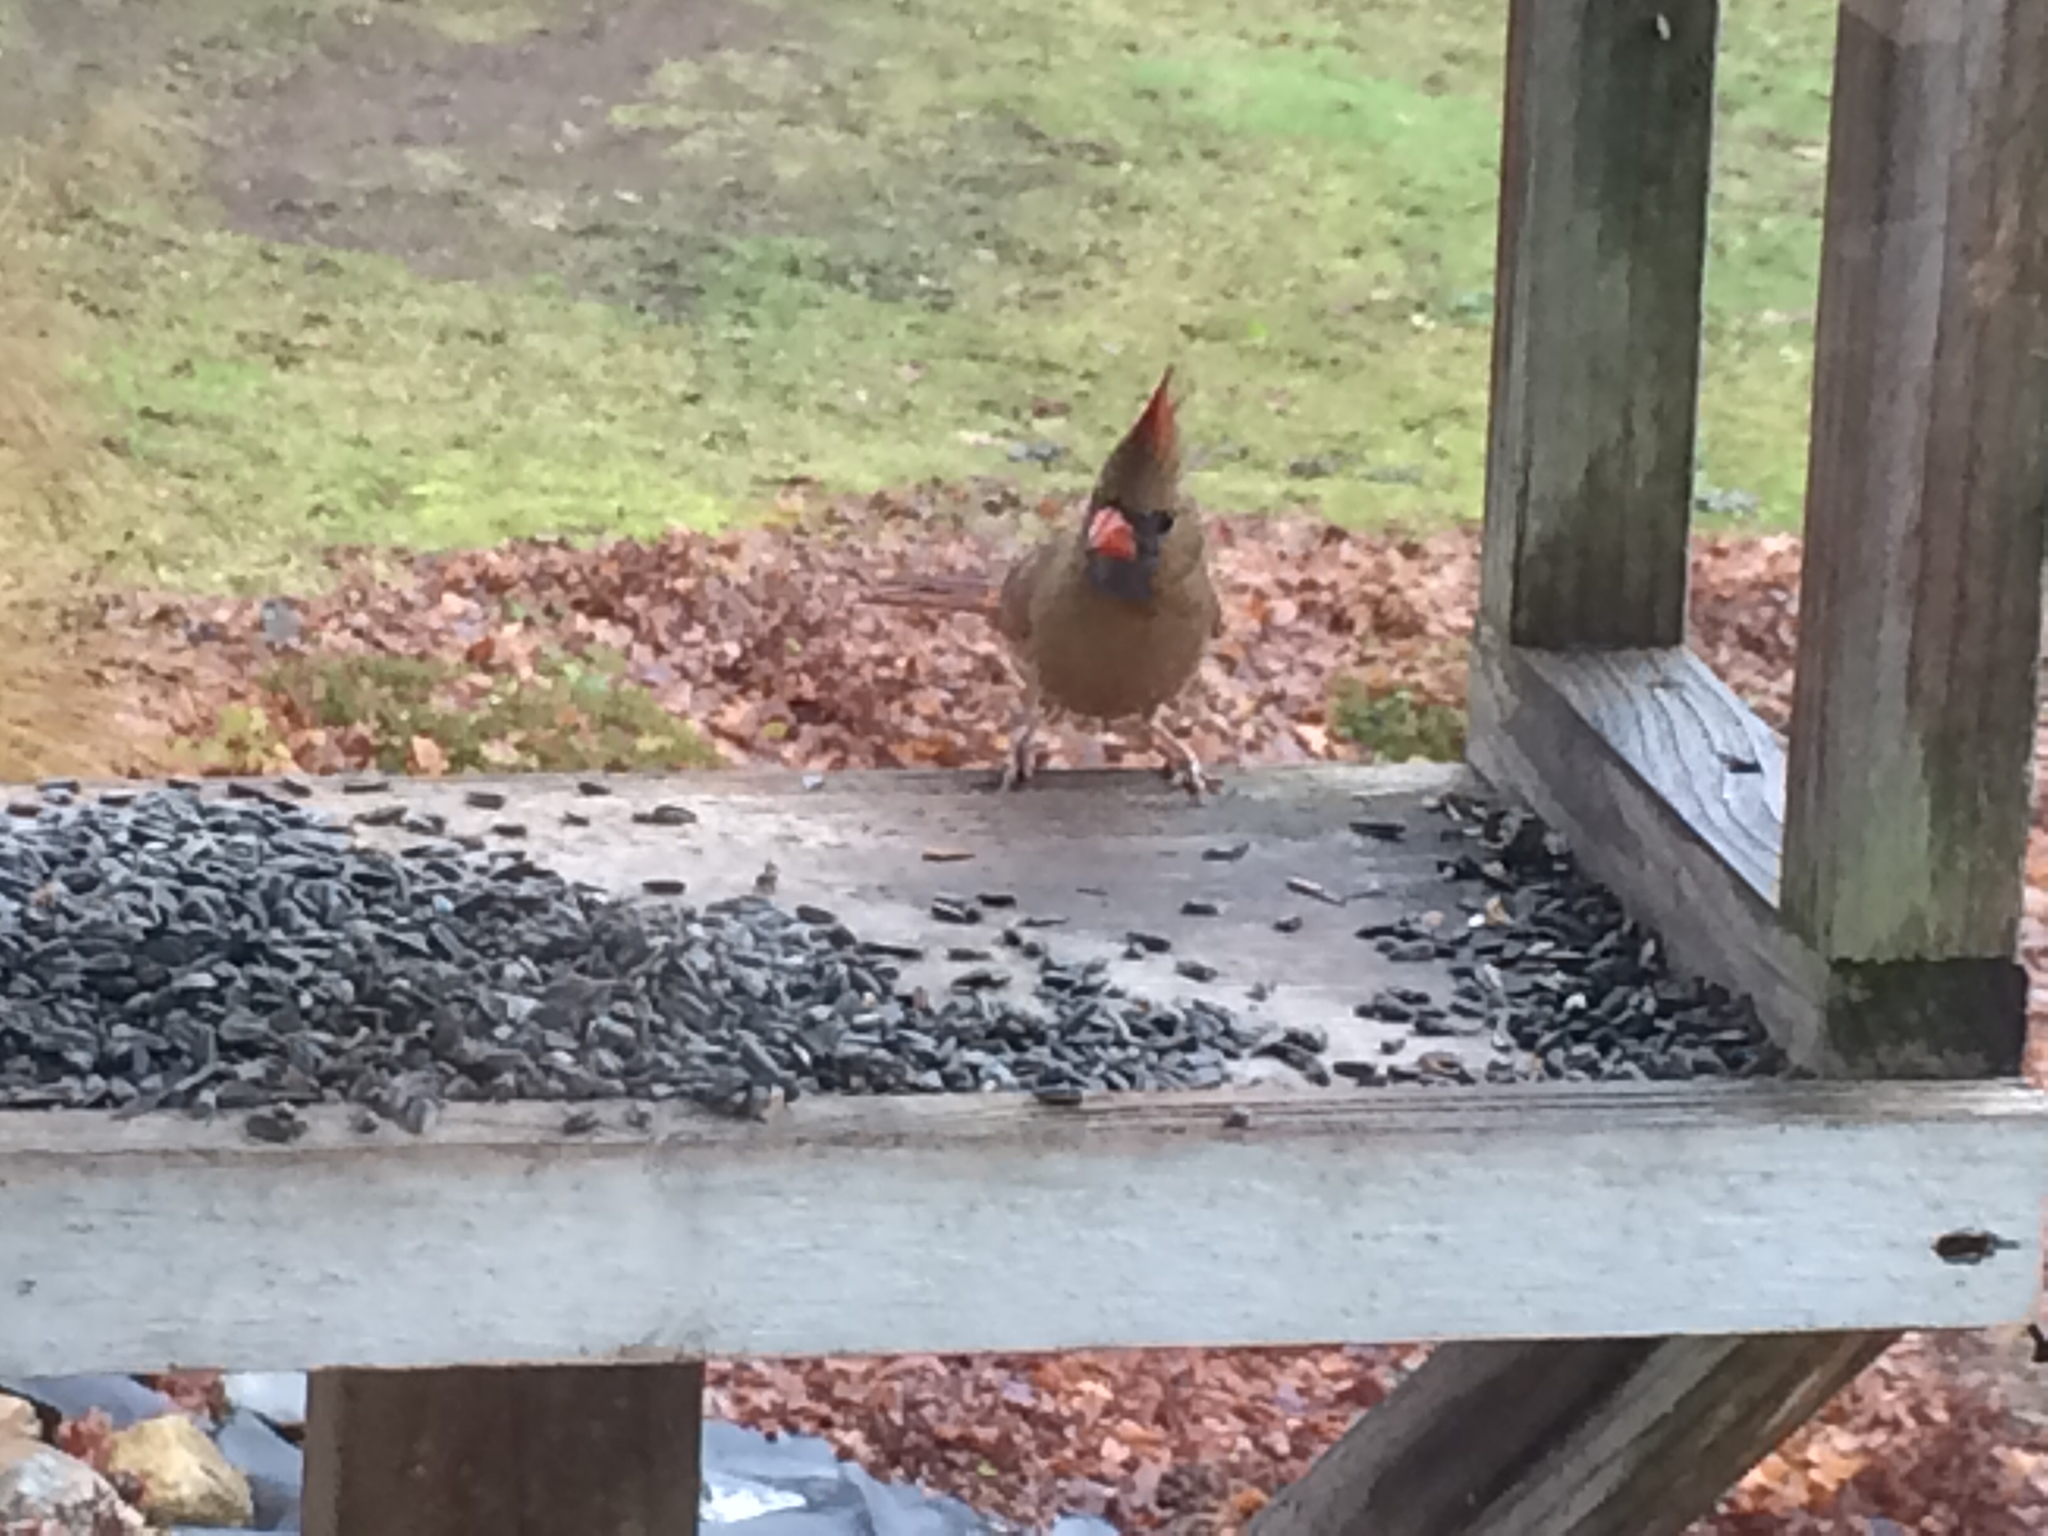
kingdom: Animalia
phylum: Chordata
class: Aves
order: Passeriformes
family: Cardinalidae
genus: Cardinalis
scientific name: Cardinalis cardinalis
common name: Northern cardinal
